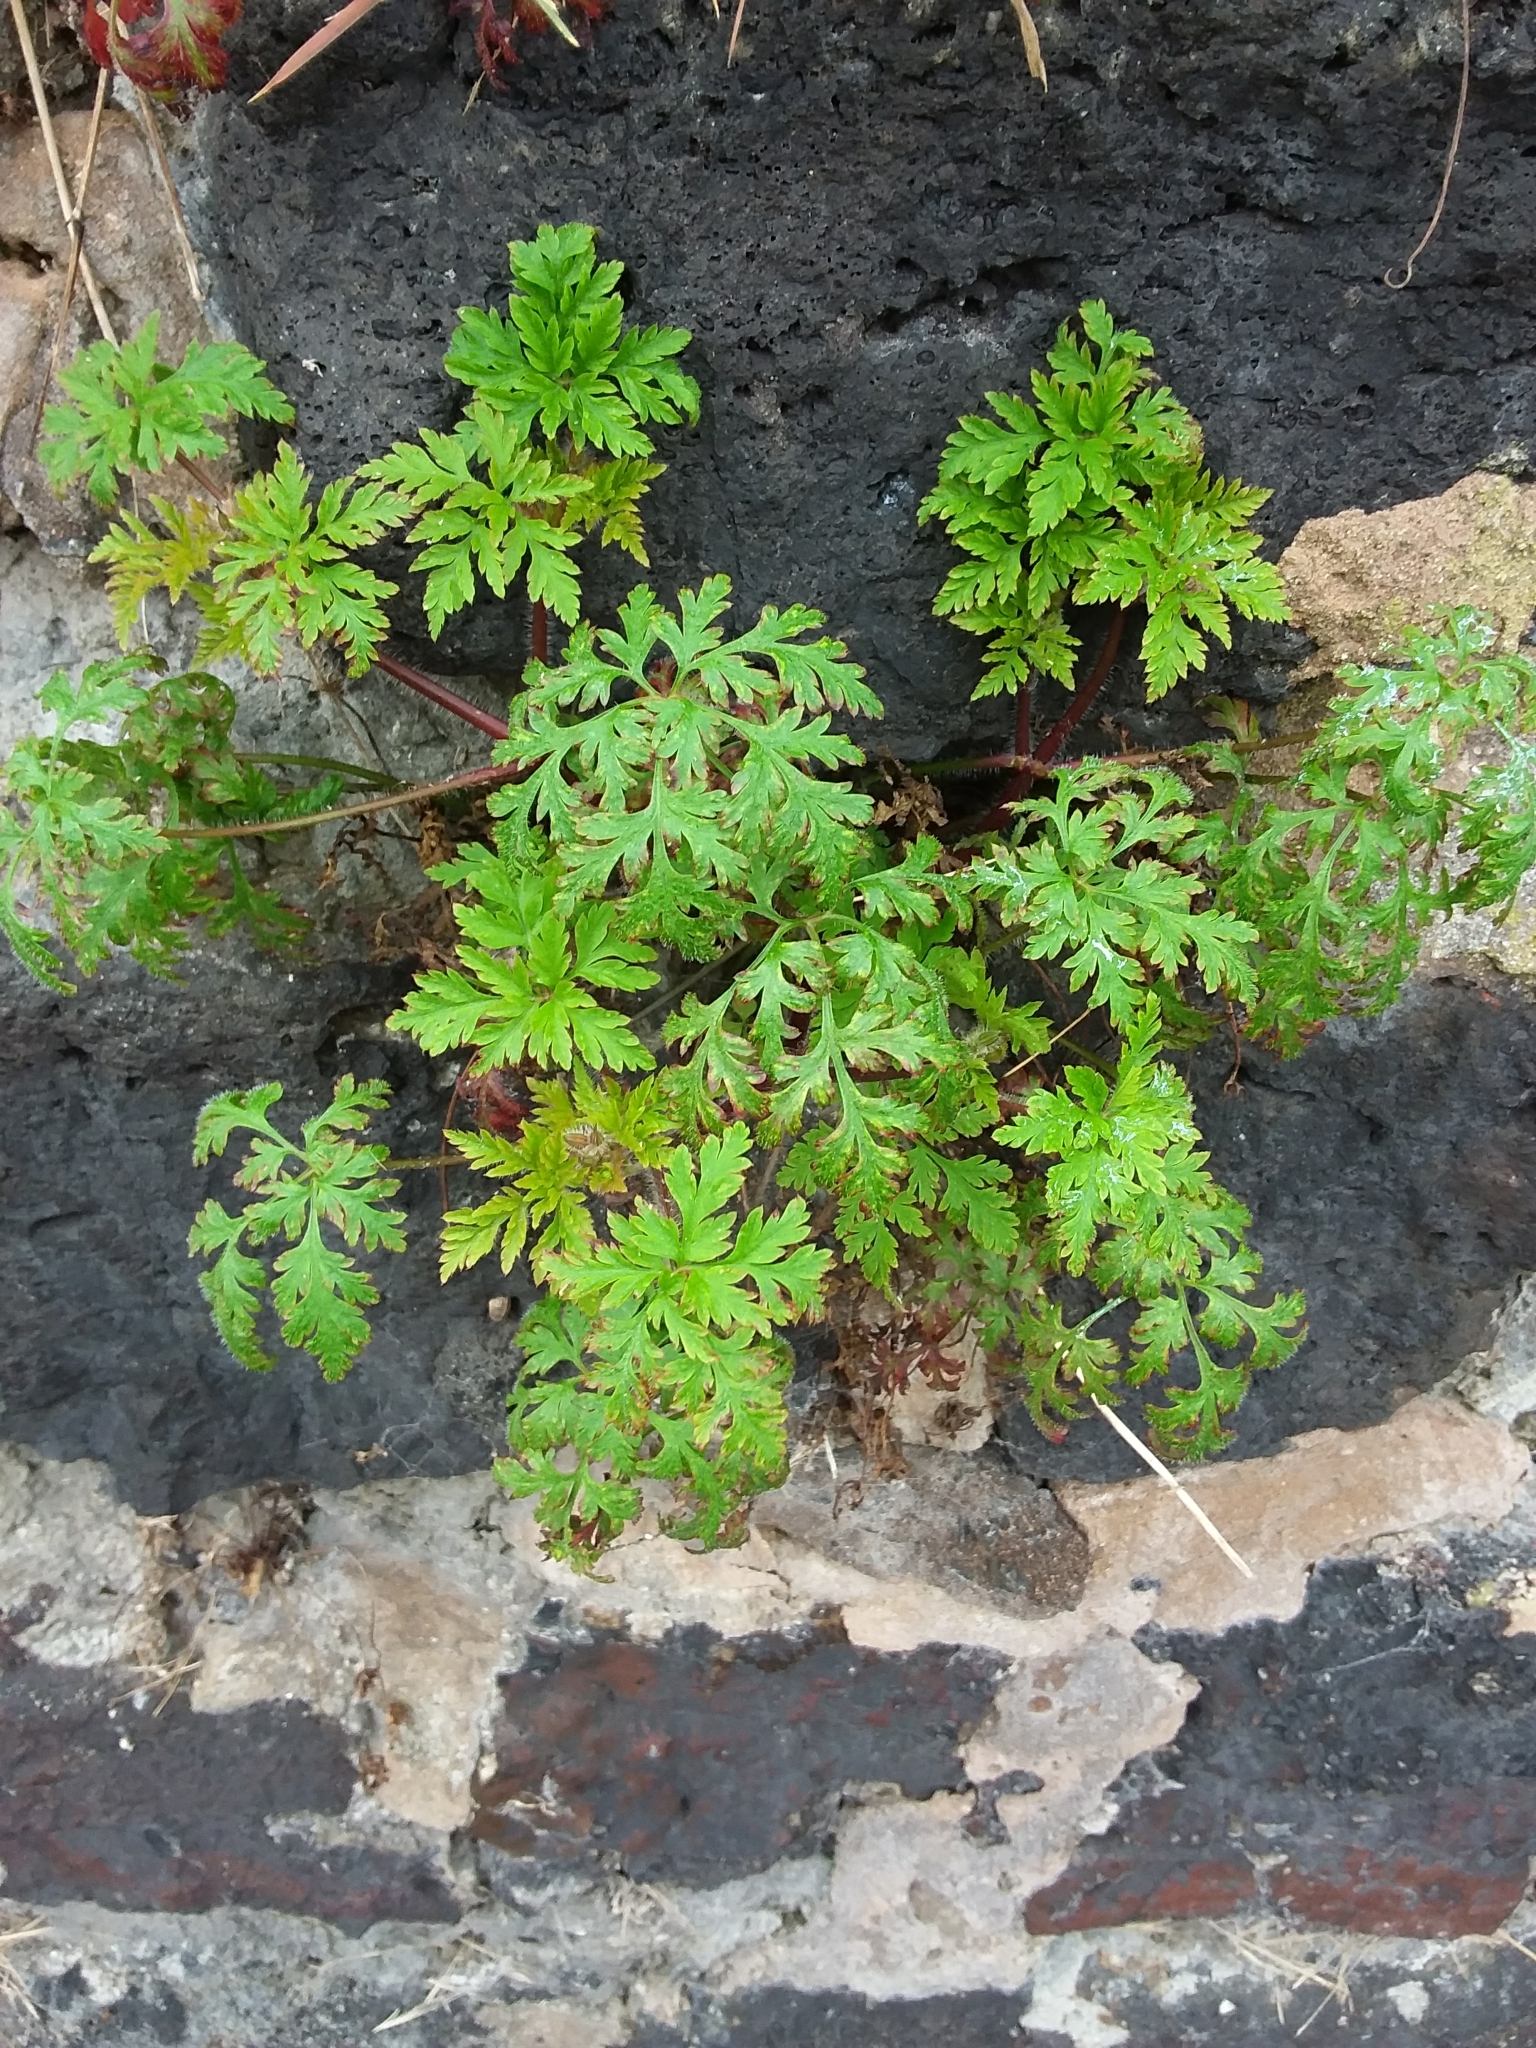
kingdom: Plantae
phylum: Tracheophyta
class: Magnoliopsida
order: Geraniales
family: Geraniaceae
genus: Geranium
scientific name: Geranium robertianum
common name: Herb-robert
